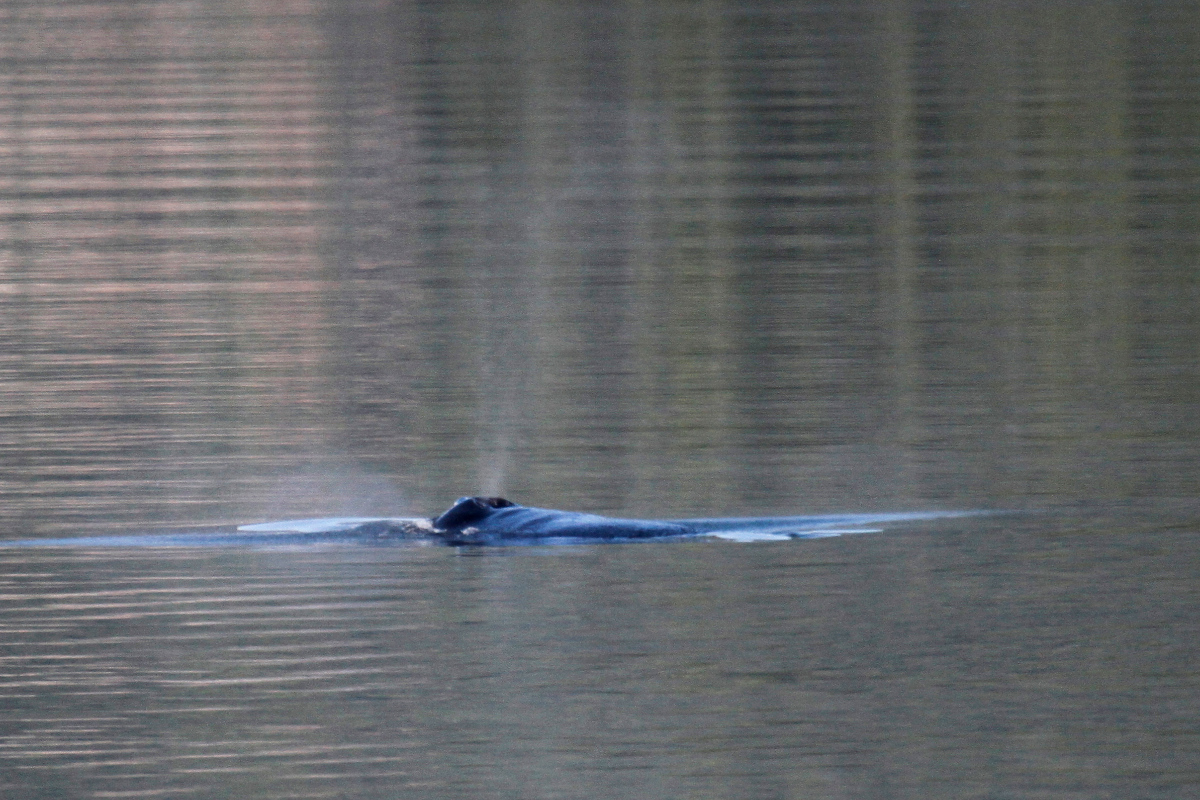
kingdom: Animalia
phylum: Chordata
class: Mammalia
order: Cetacea
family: Balaenopteridae
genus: Megaptera
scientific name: Megaptera novaeangliae
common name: Humpback whale
